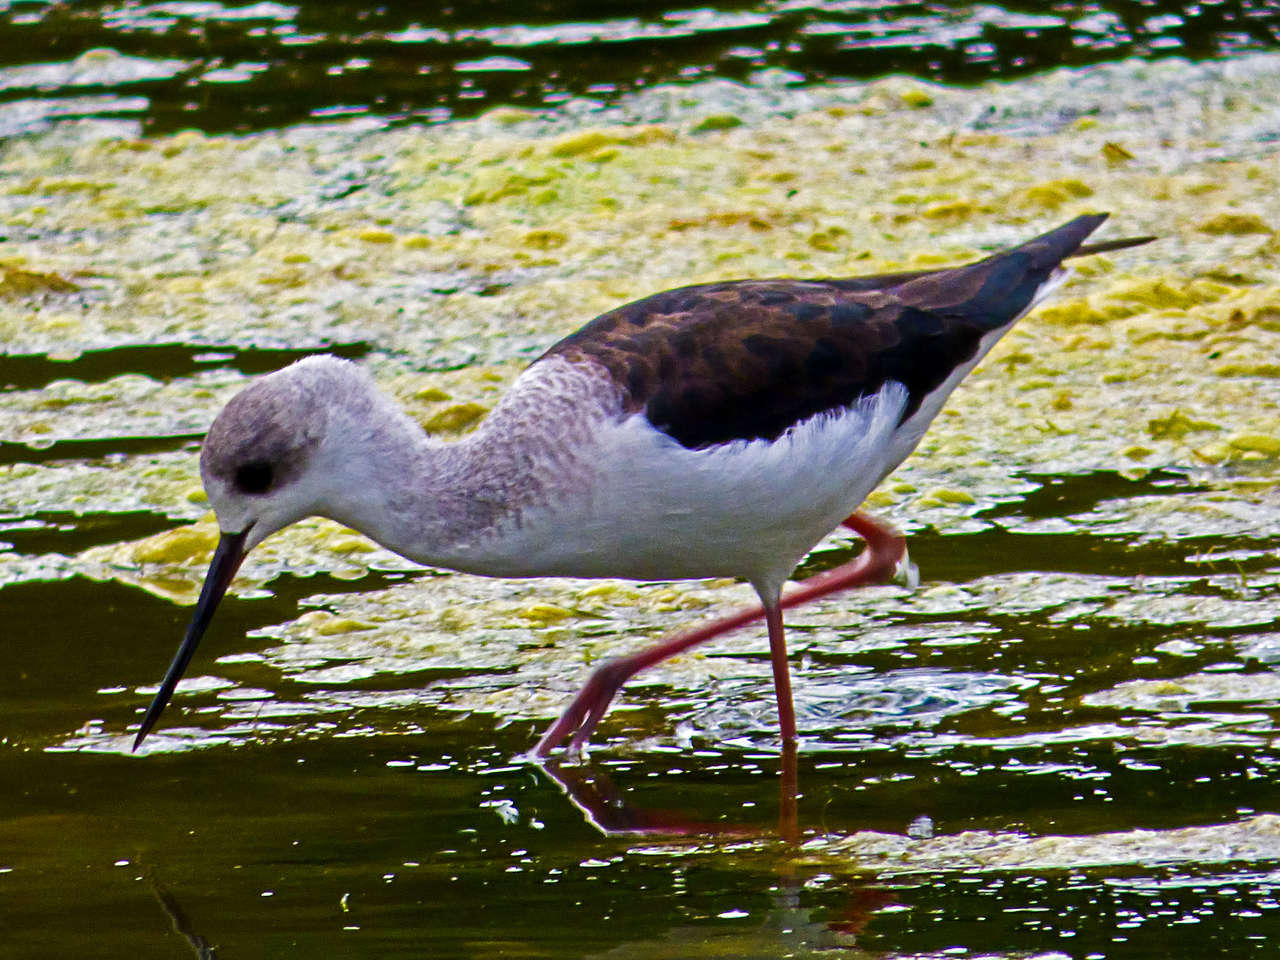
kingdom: Animalia
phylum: Chordata
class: Aves
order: Charadriiformes
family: Recurvirostridae
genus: Himantopus
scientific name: Himantopus leucocephalus
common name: White-headed stilt
